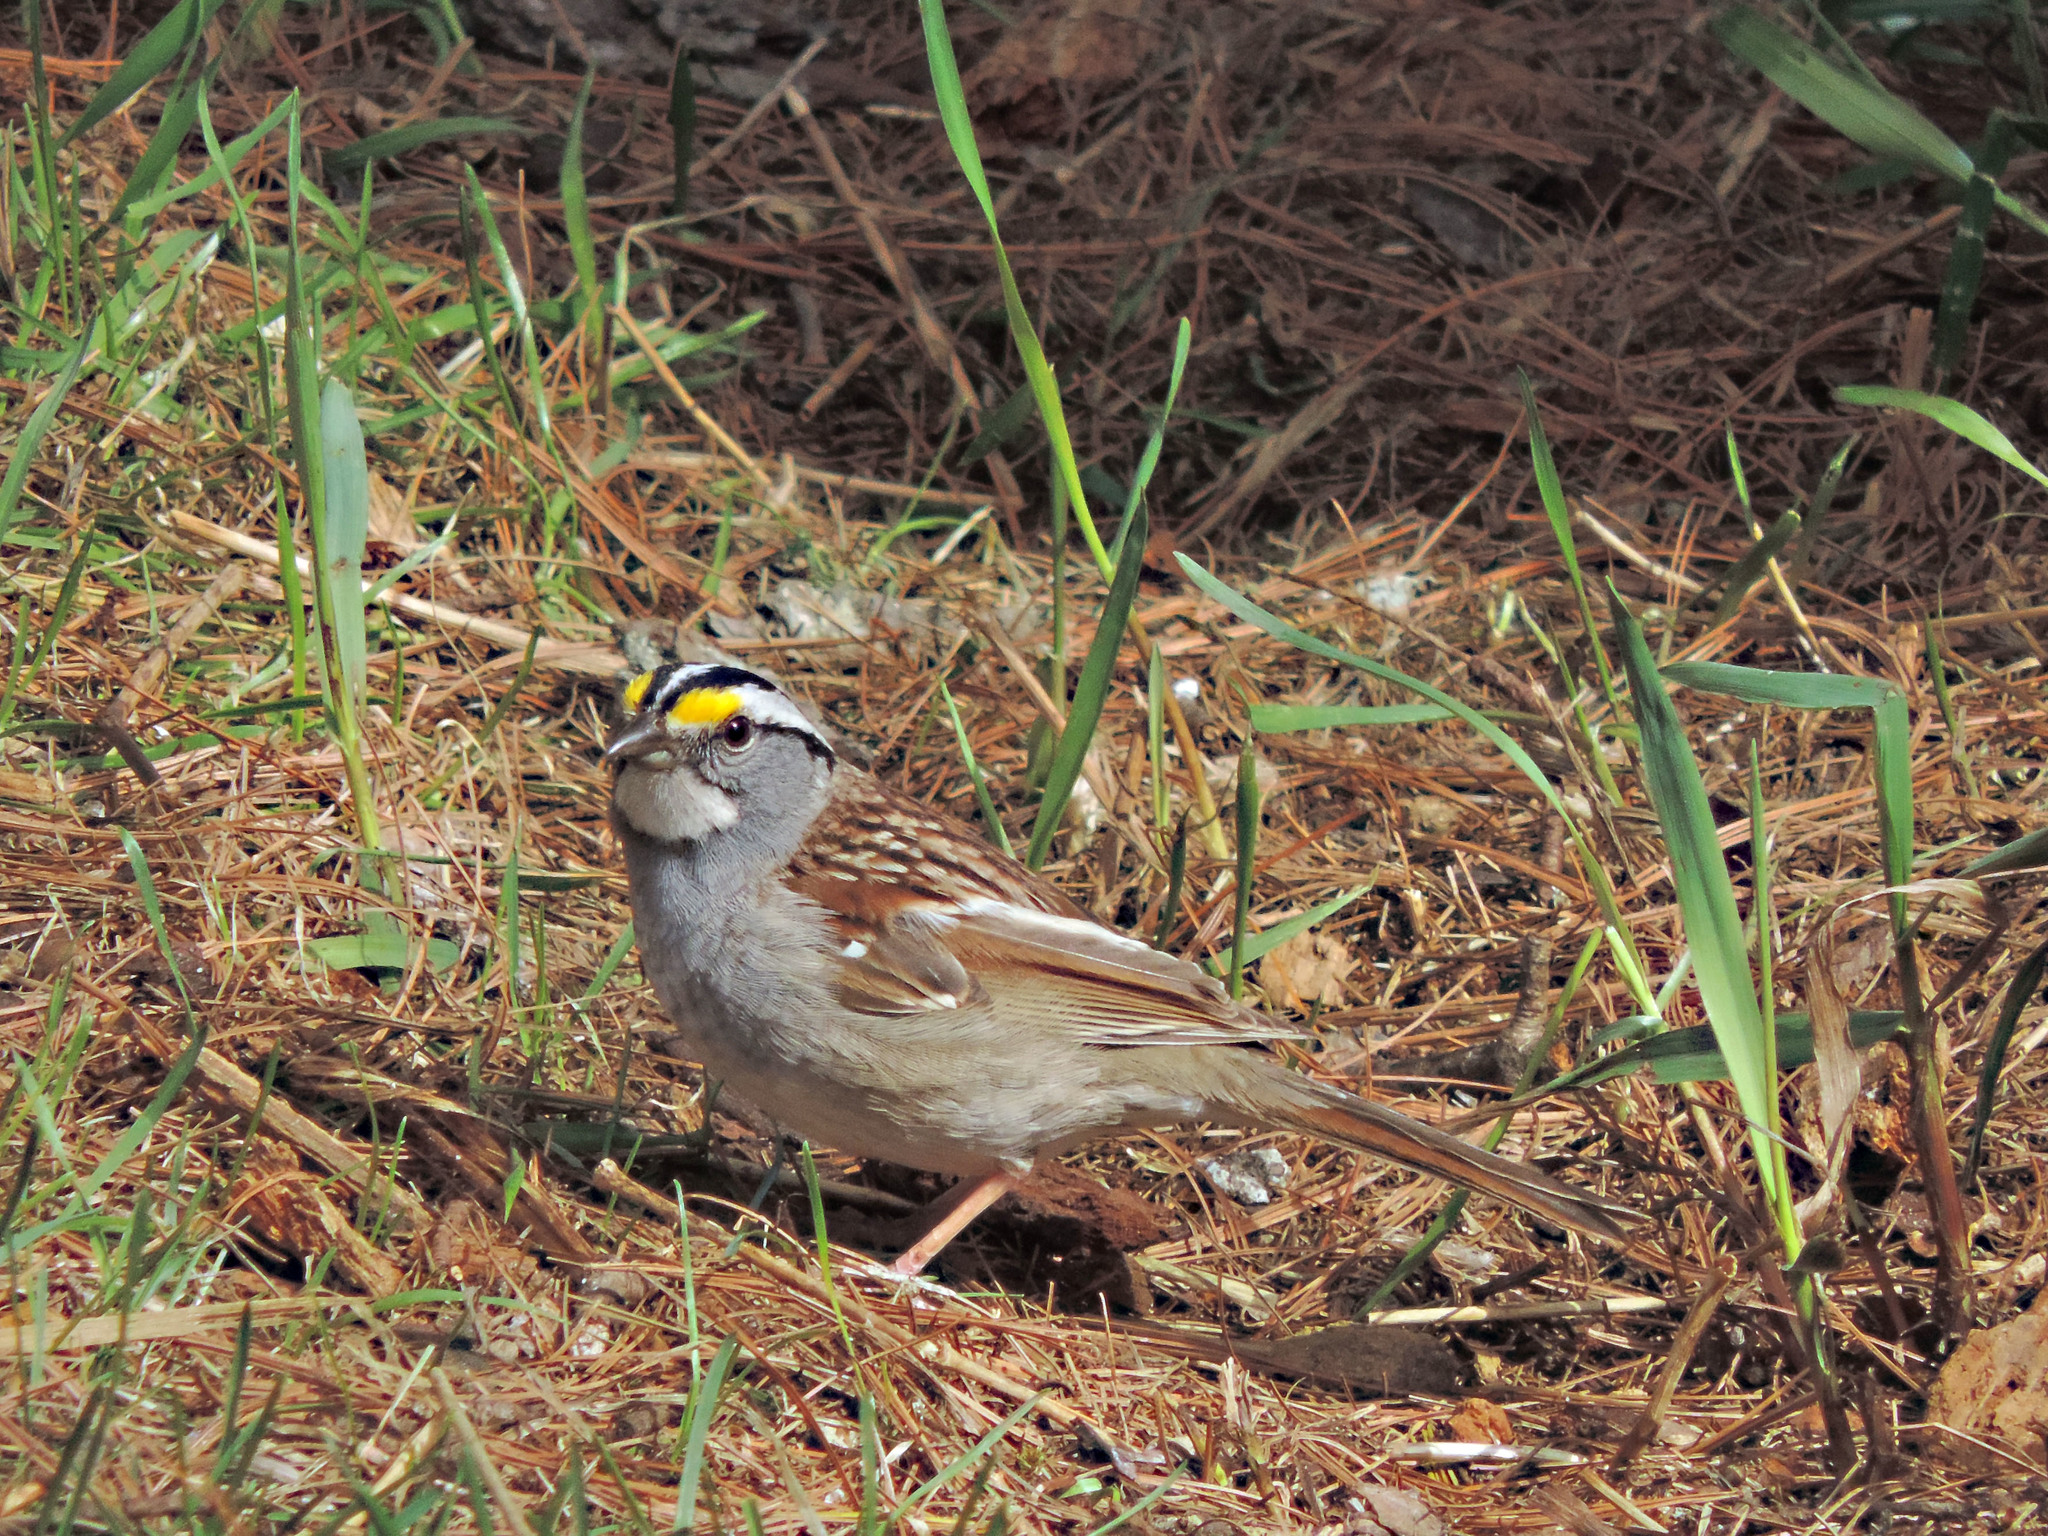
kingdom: Animalia
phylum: Chordata
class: Aves
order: Passeriformes
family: Passerellidae
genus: Zonotrichia
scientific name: Zonotrichia albicollis
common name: White-throated sparrow
